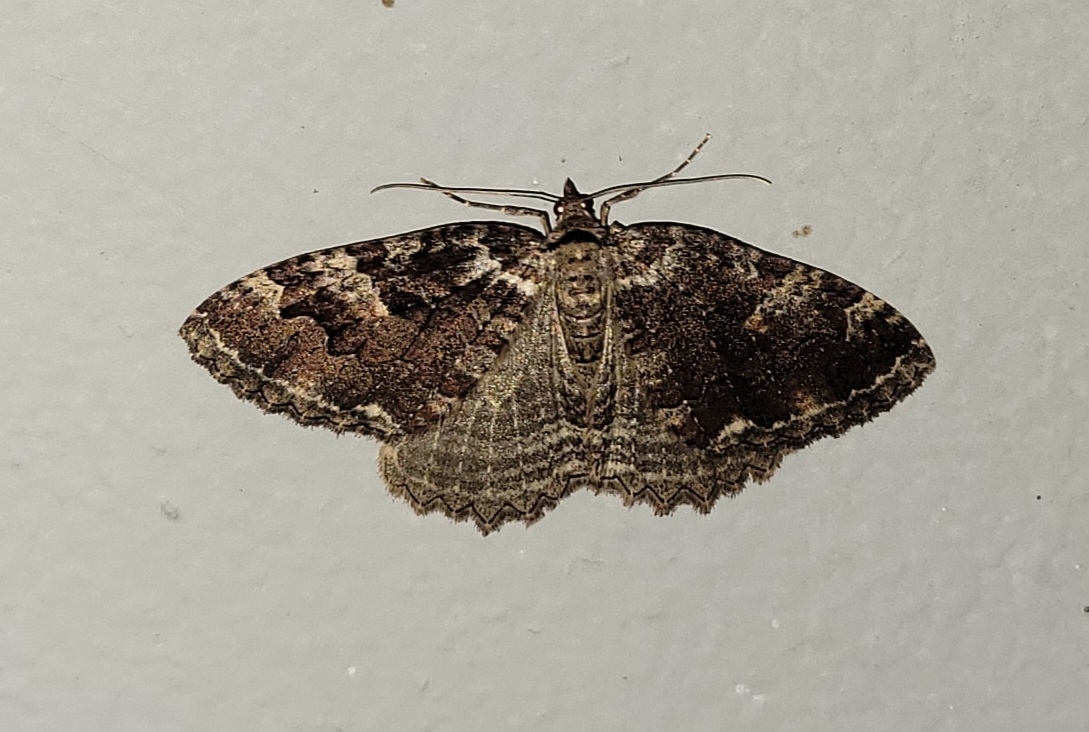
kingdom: Animalia
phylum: Arthropoda
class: Insecta
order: Lepidoptera
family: Geometridae
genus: Triphosa
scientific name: Triphosa haesitata
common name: Tissue moth
